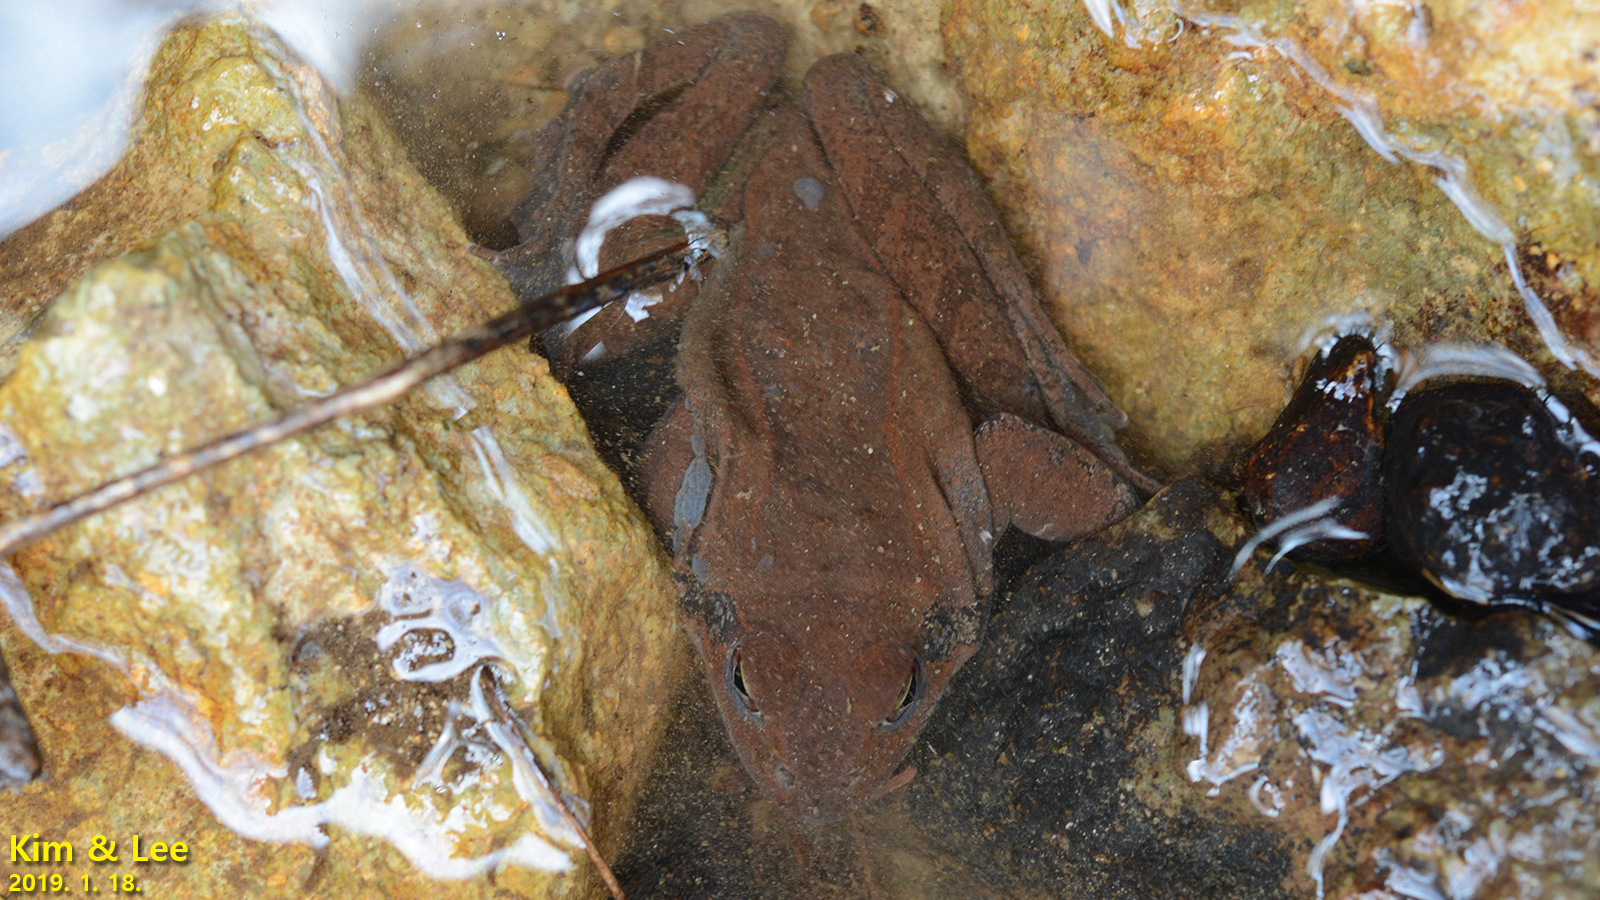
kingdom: Animalia
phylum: Chordata
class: Amphibia
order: Anura
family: Ranidae
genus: Rana
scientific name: Rana uenoi
